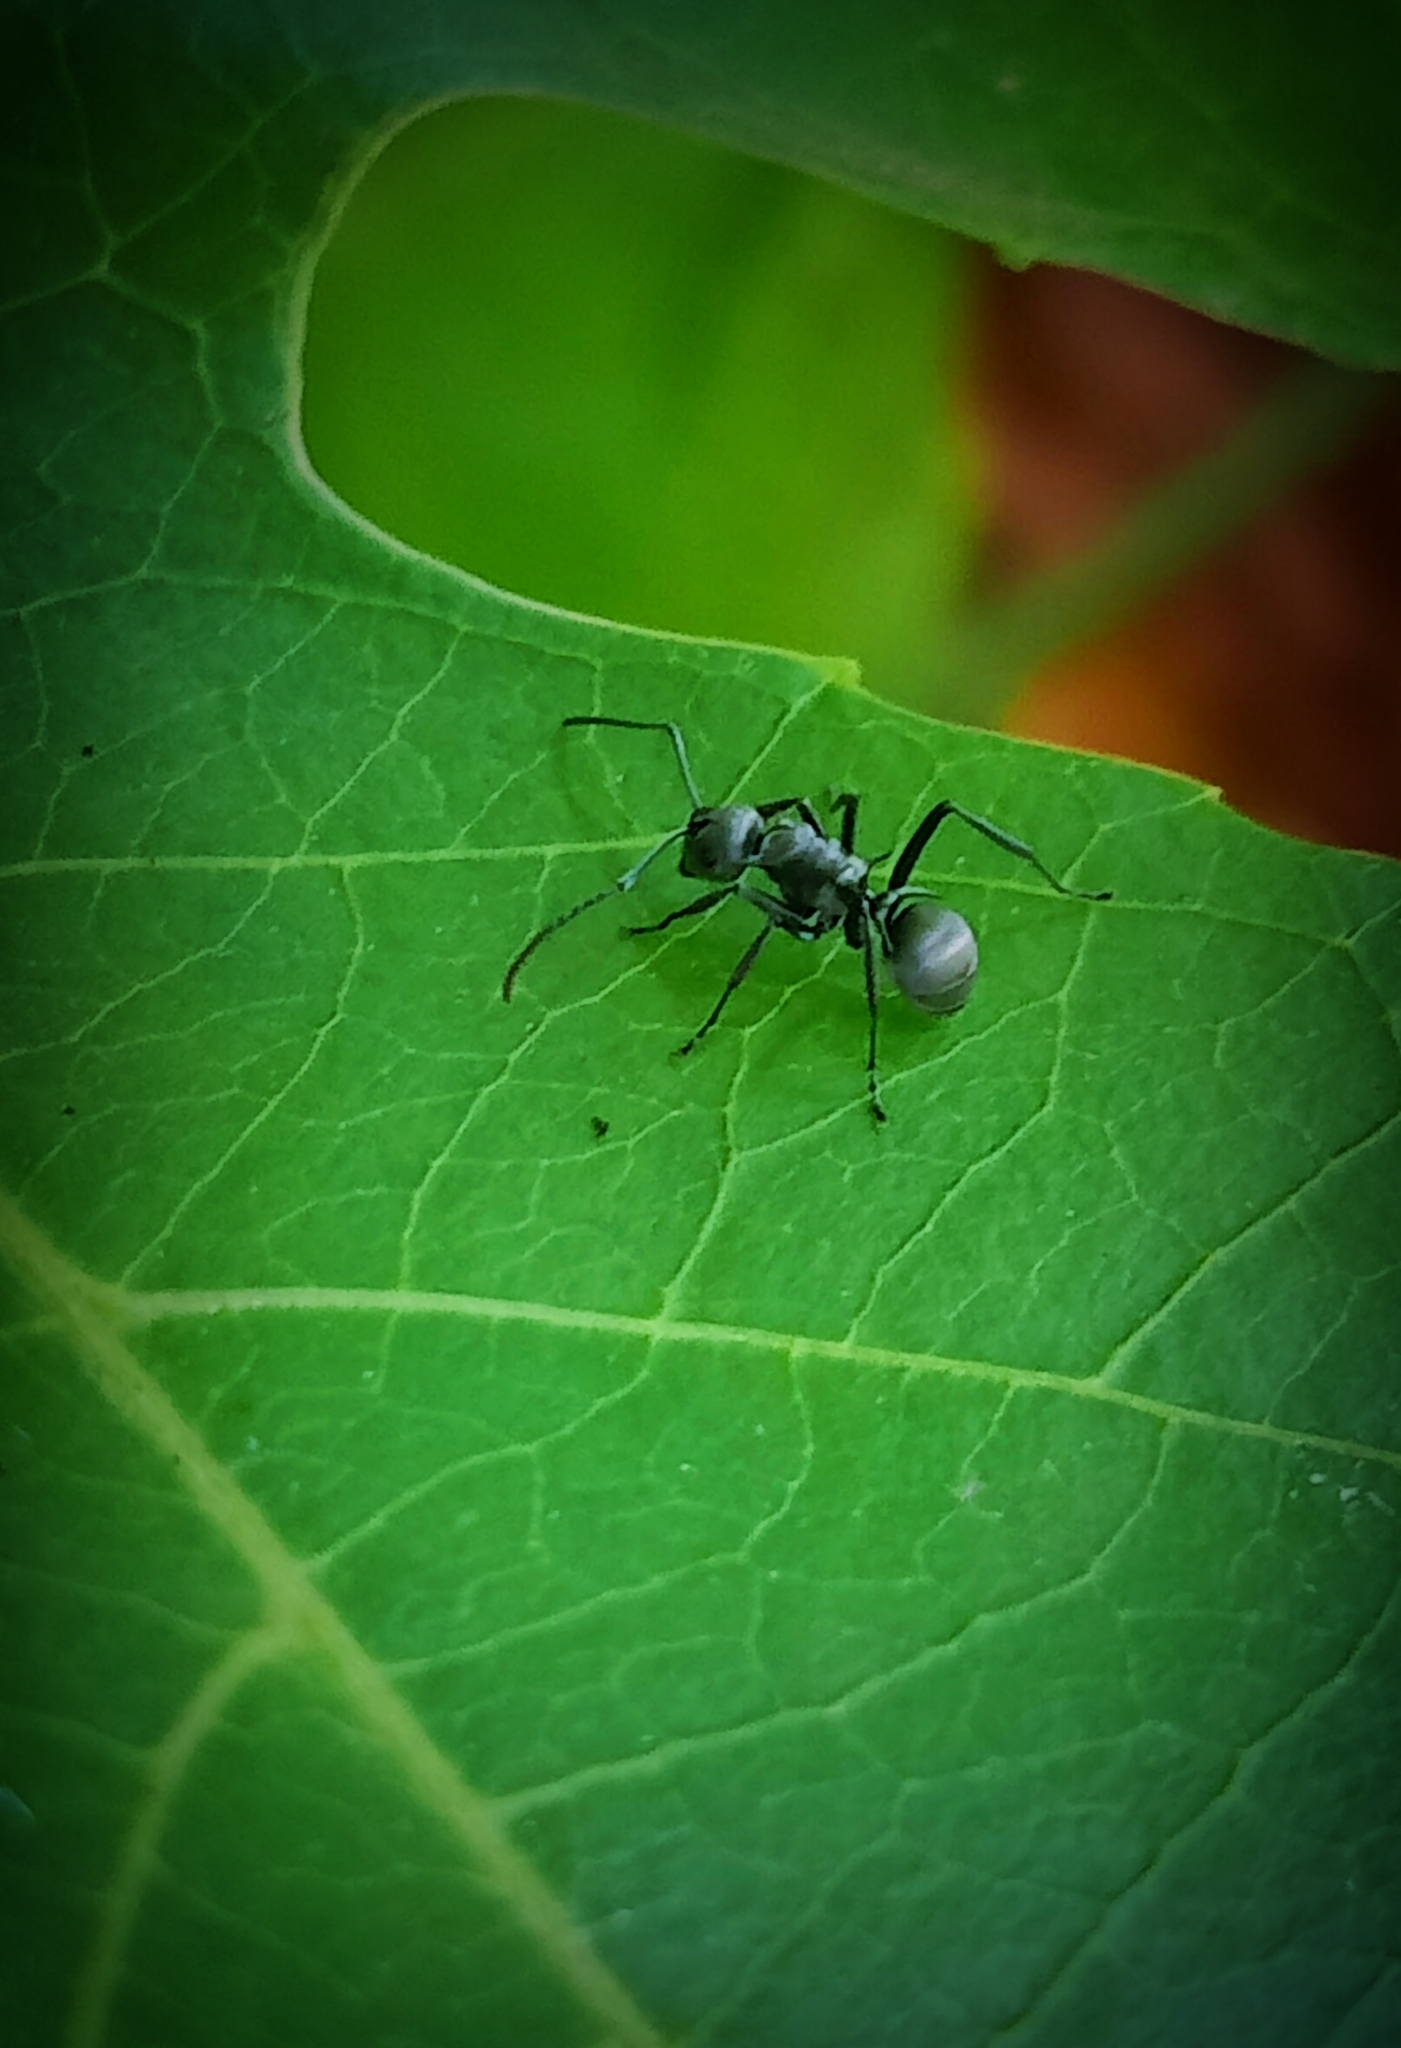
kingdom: Animalia
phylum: Arthropoda
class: Insecta
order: Hymenoptera
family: Formicidae
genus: Polyrhachis
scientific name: Polyrhachis tibialis
